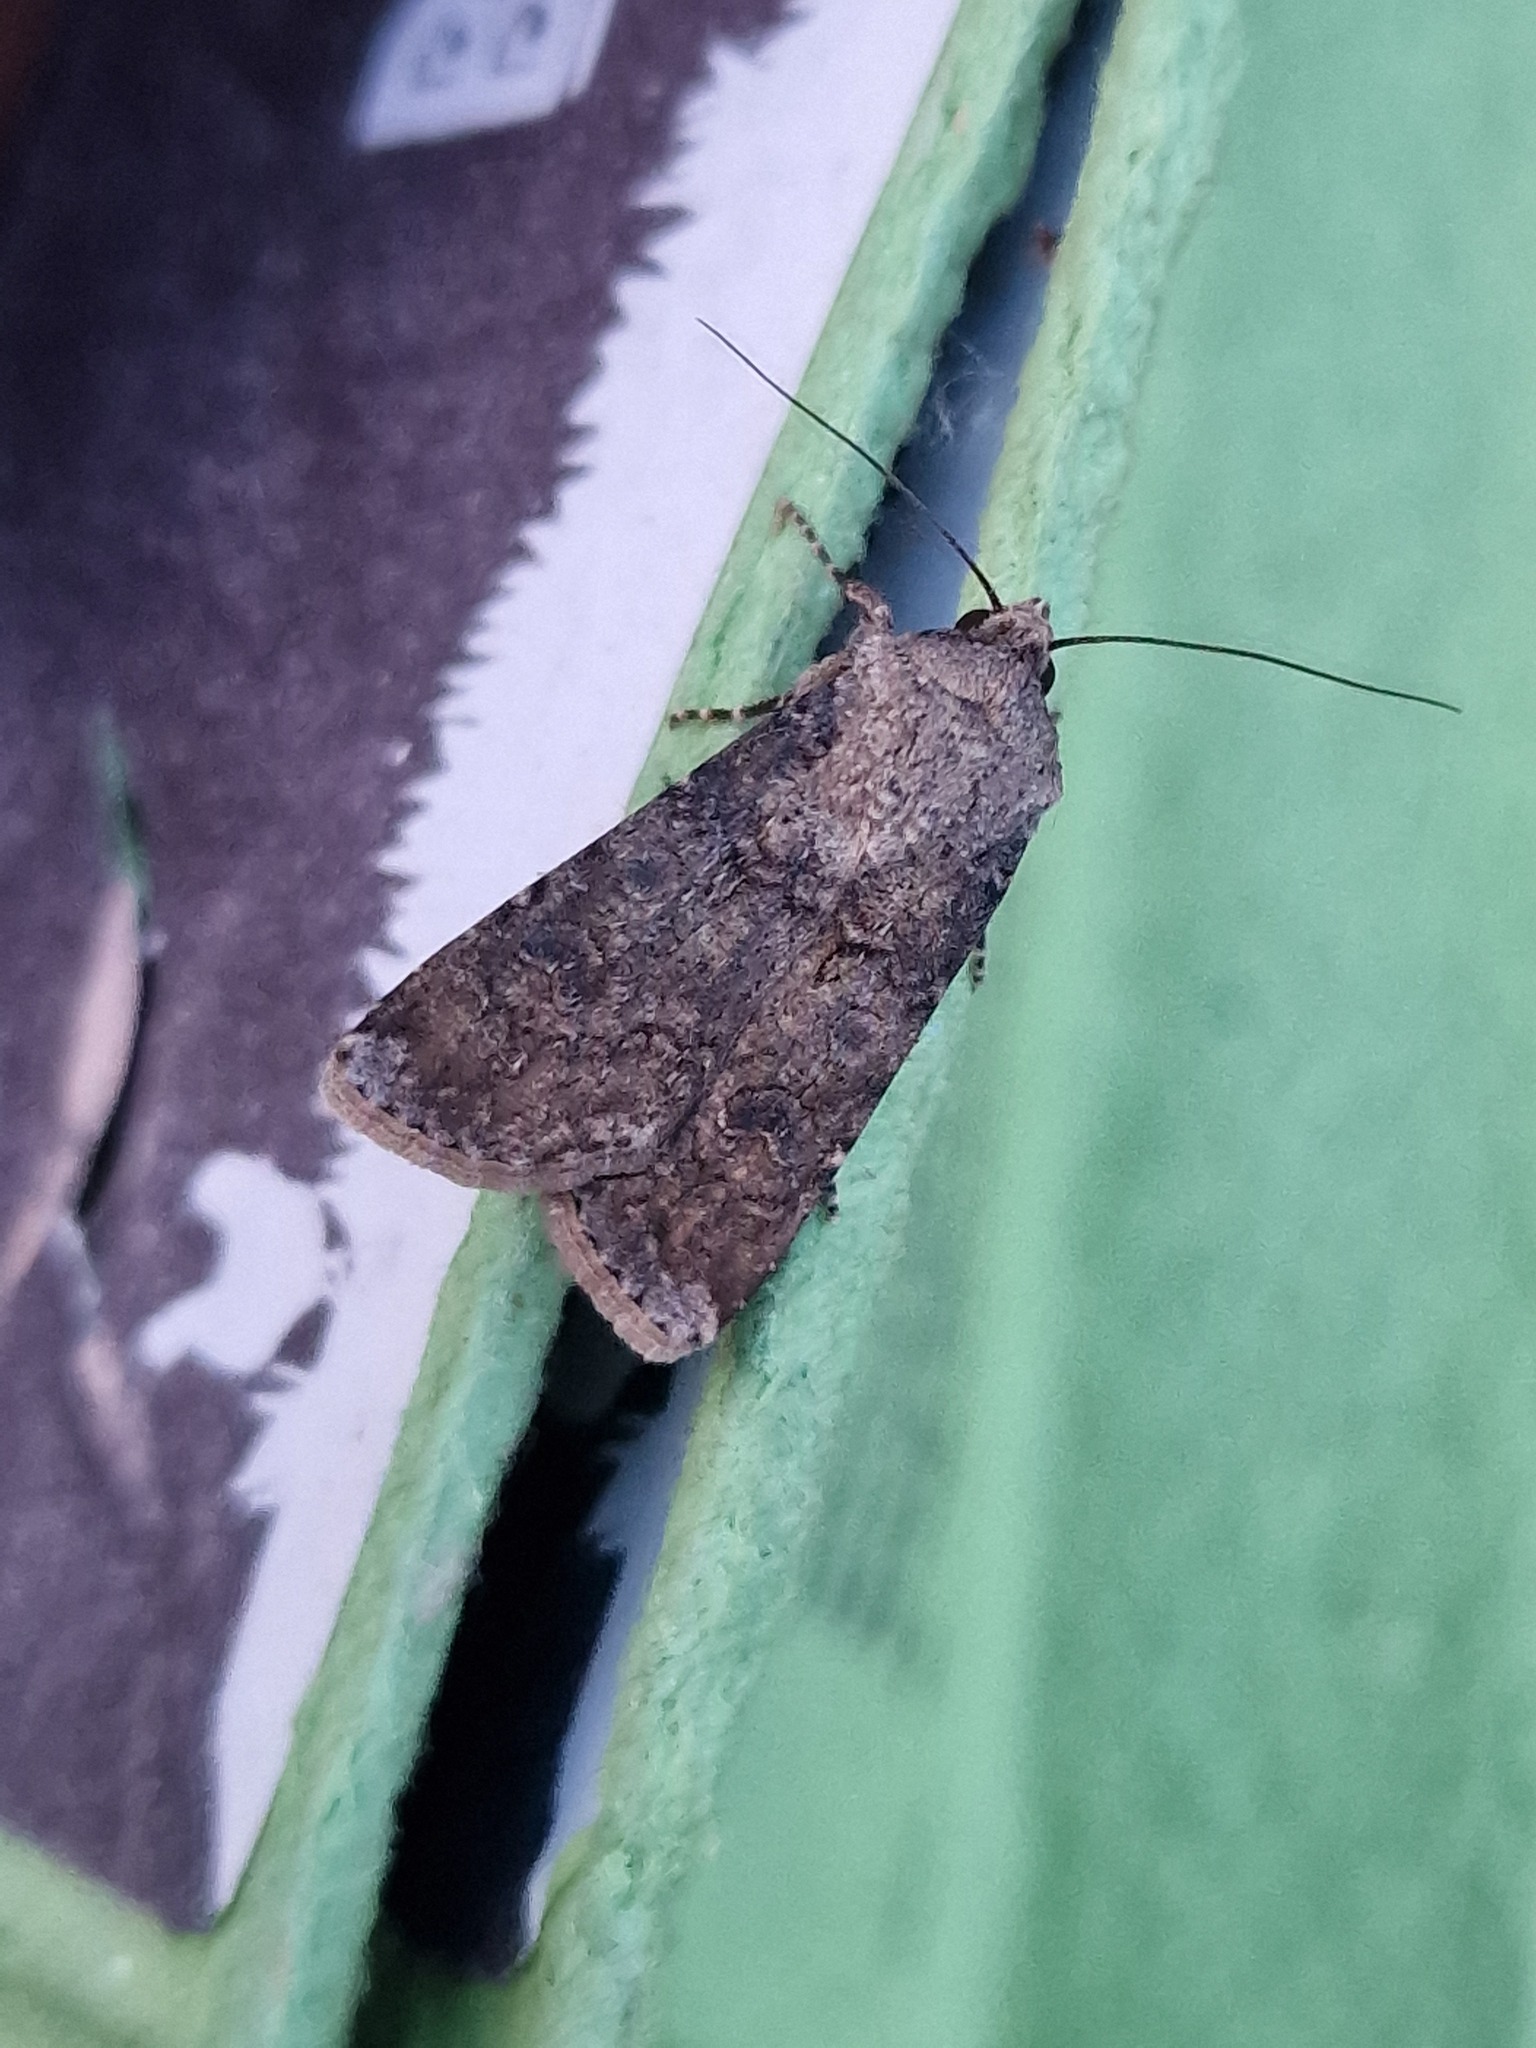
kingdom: Animalia
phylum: Arthropoda
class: Insecta
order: Lepidoptera
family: Noctuidae
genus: Agrotis
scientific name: Agrotis segetum
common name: Turnip moth
